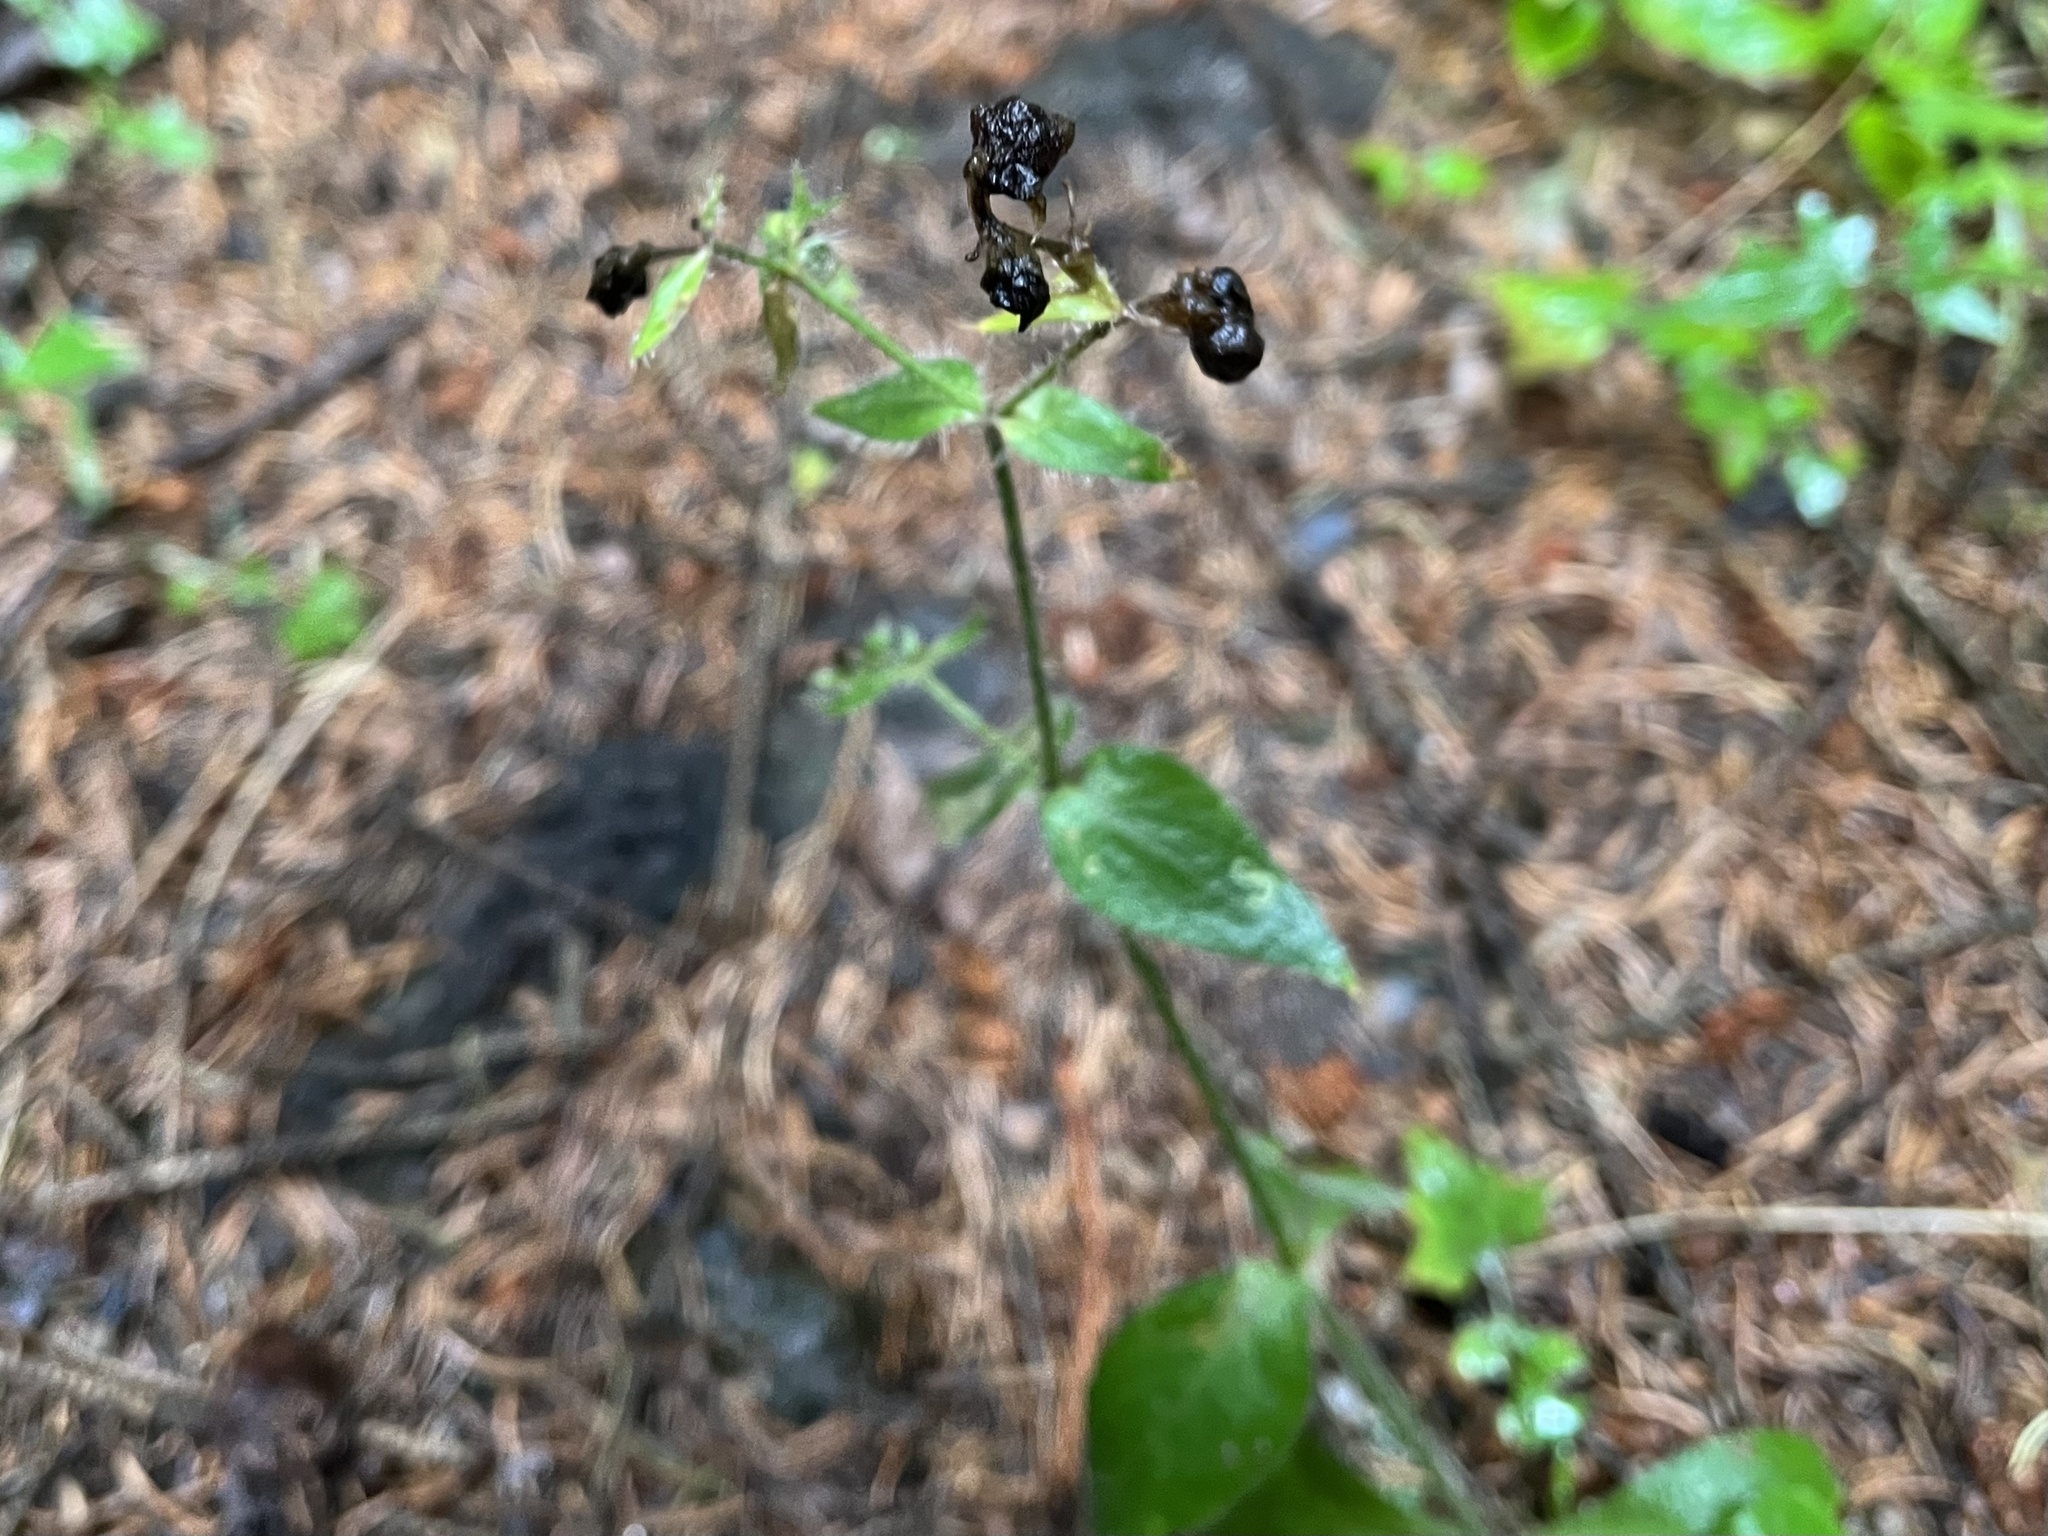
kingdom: Plantae
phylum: Tracheophyta
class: Magnoliopsida
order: Caryophyllales
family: Caryophyllaceae
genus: Silene
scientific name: Silene dioica
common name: Red campion
